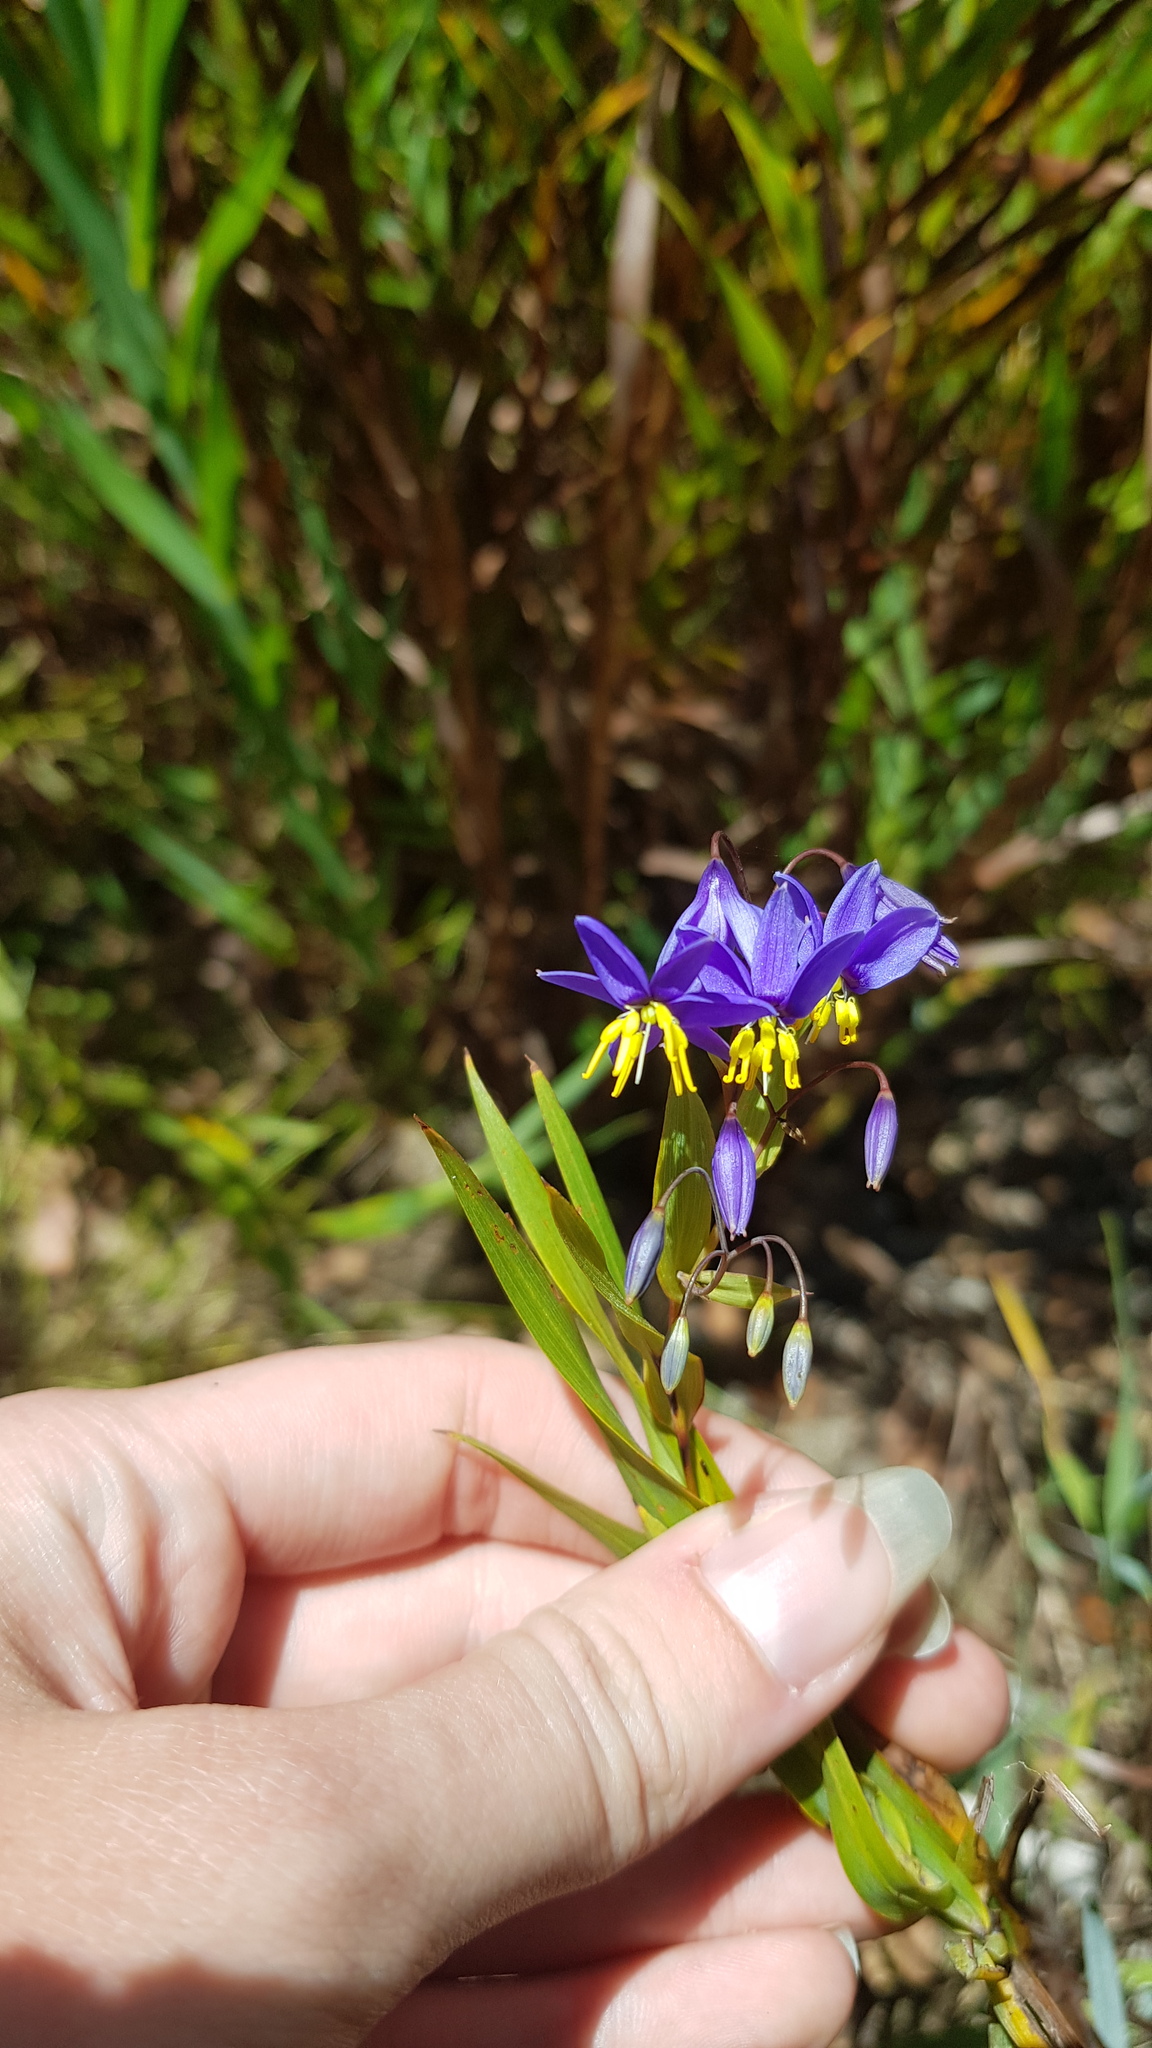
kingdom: Plantae
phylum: Tracheophyta
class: Liliopsida
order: Asparagales
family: Asphodelaceae
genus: Stypandra
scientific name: Stypandra glauca
